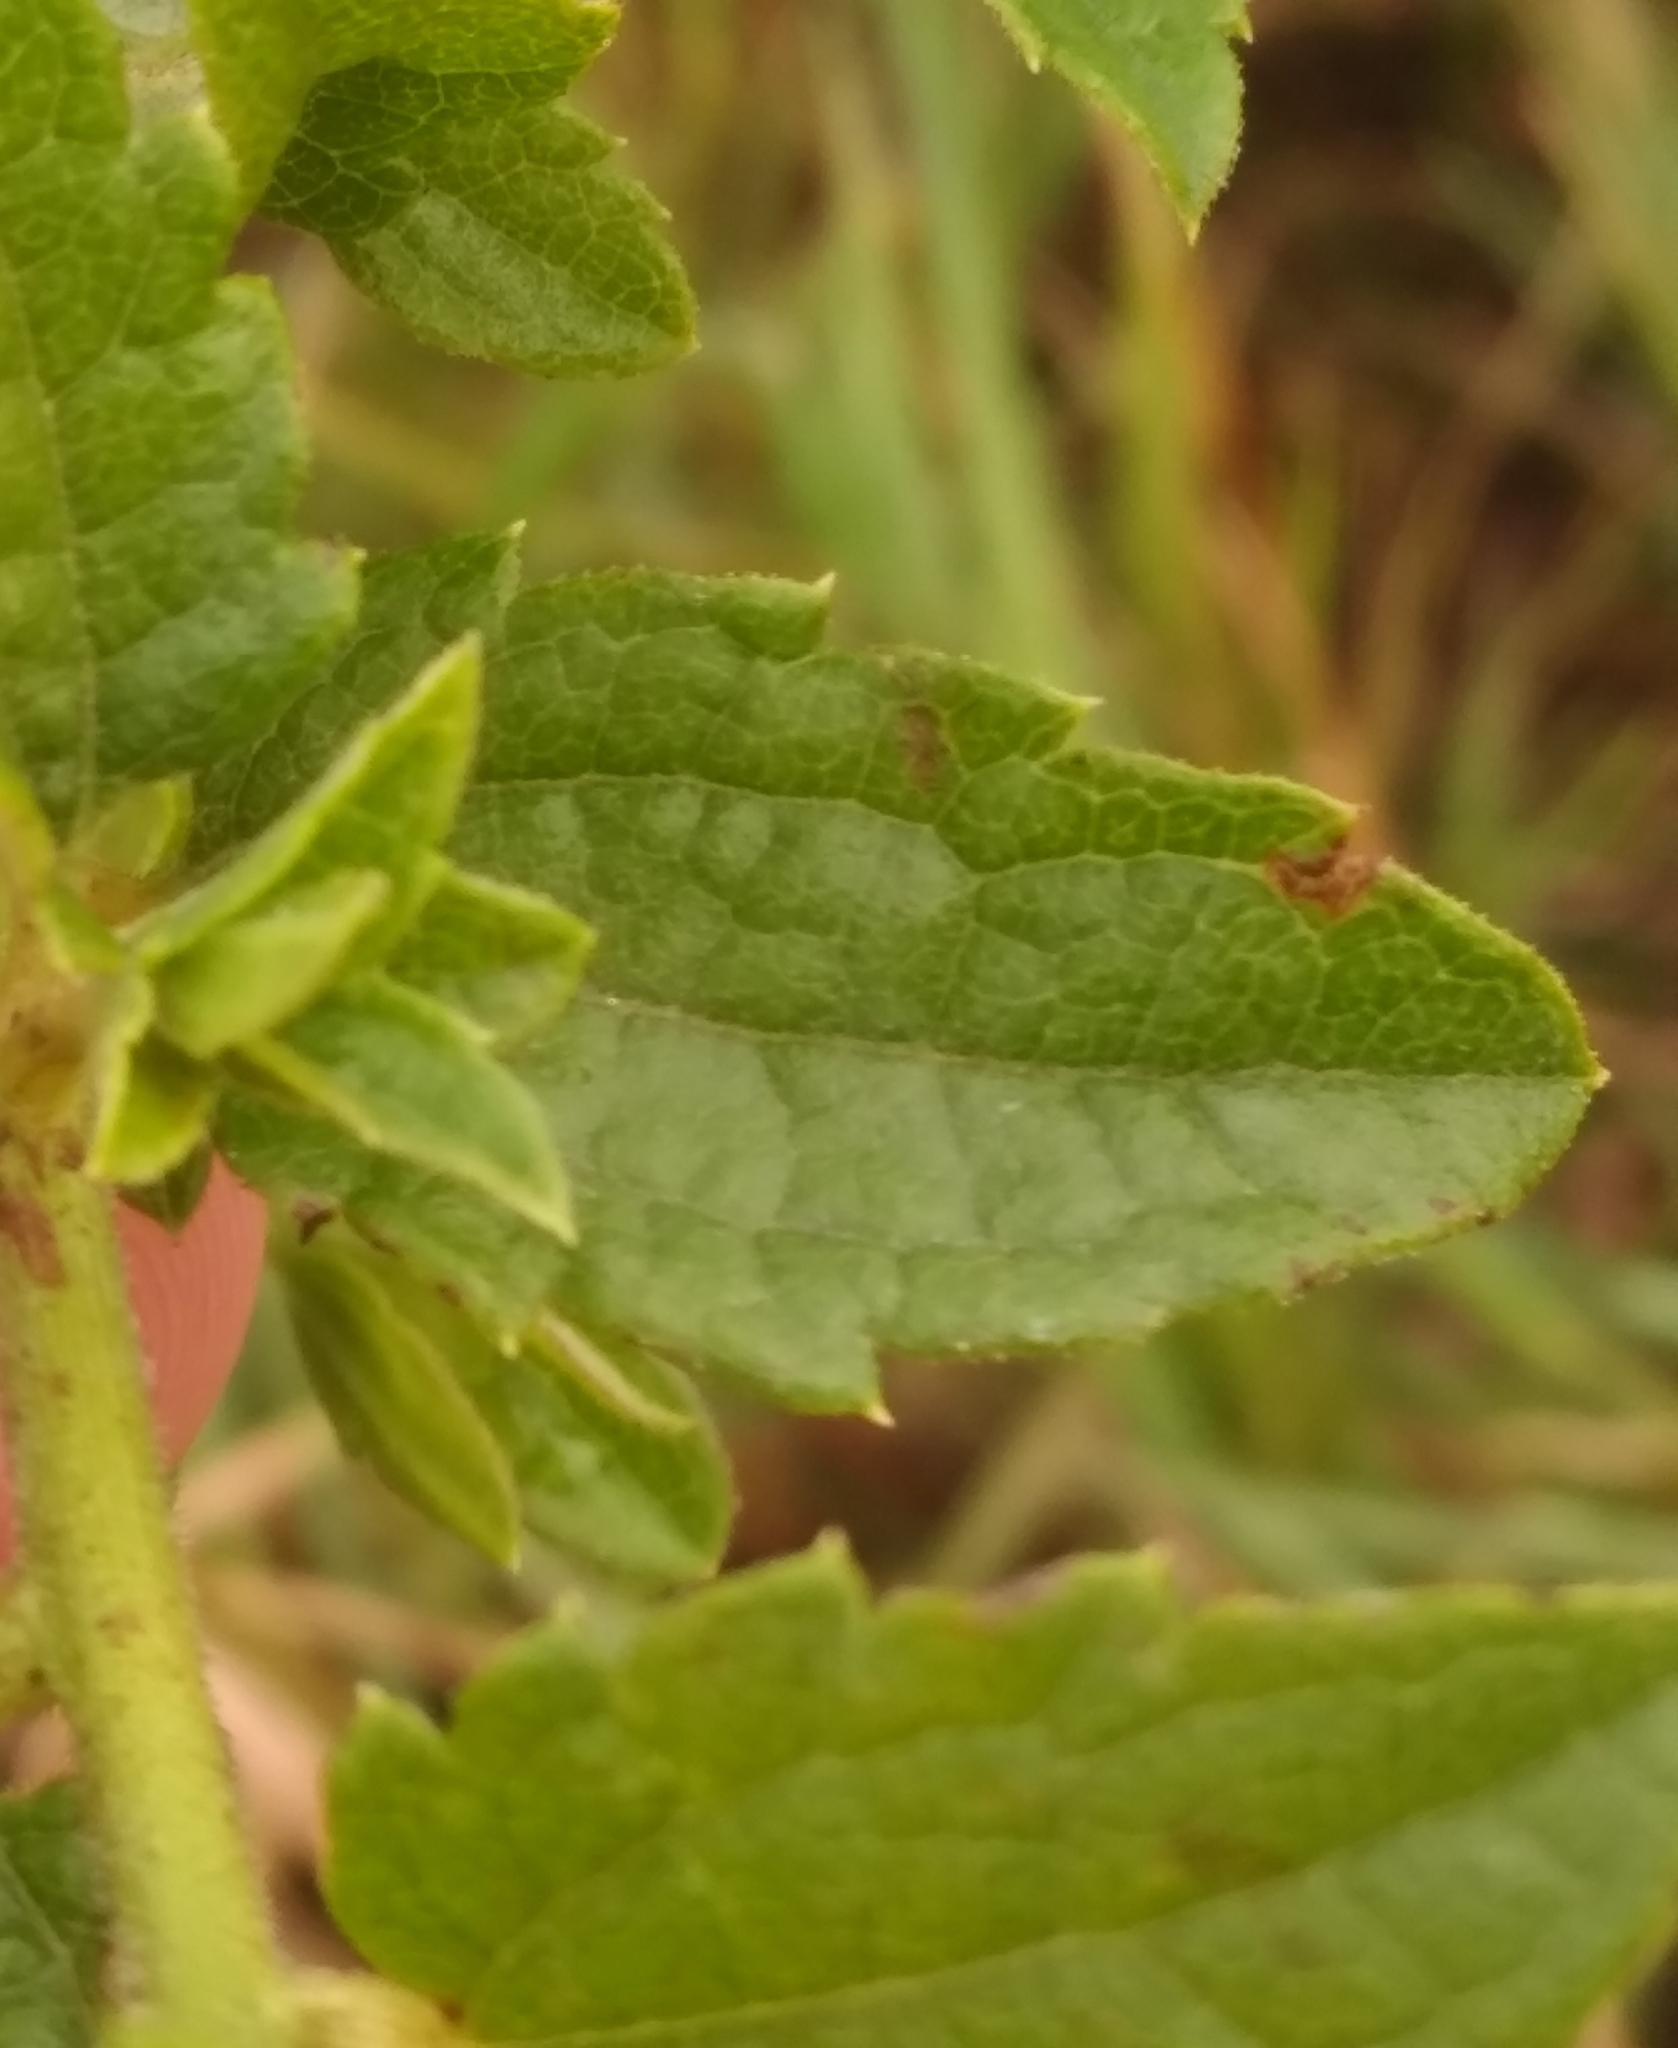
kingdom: Plantae
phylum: Tracheophyta
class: Magnoliopsida
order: Asterales
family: Asteraceae
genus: Baccharis
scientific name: Baccharis anomala
